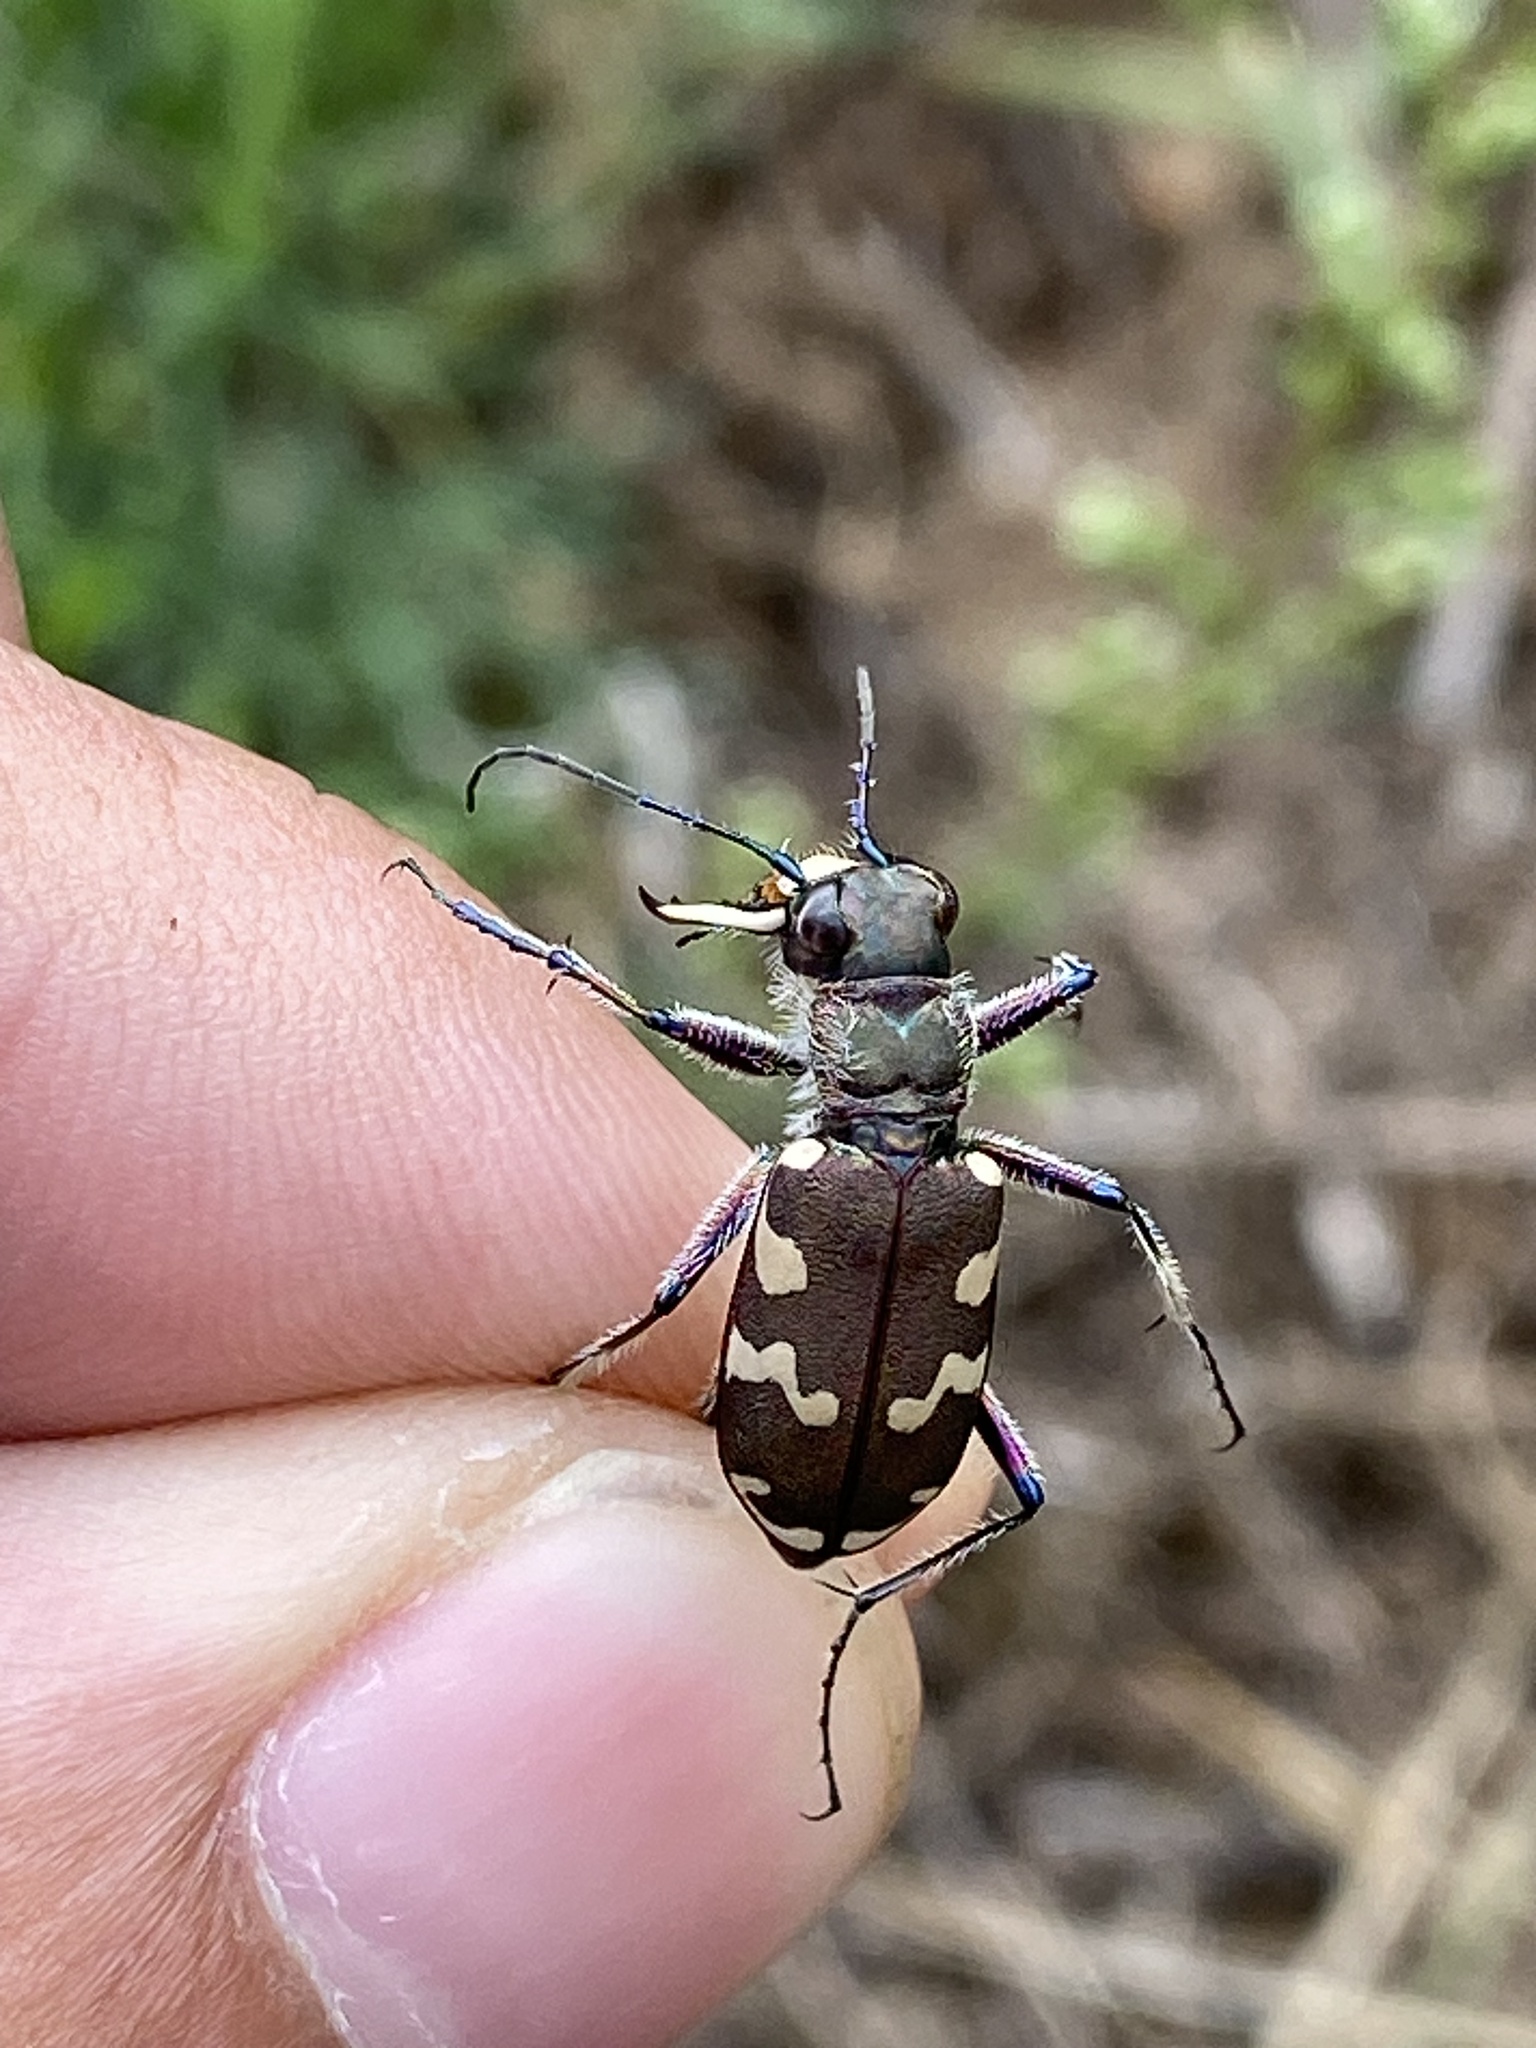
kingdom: Animalia
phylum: Arthropoda
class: Insecta
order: Coleoptera
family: Carabidae
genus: Cicindela
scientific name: Cicindela hybrida
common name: Northern dune tiger beetle
